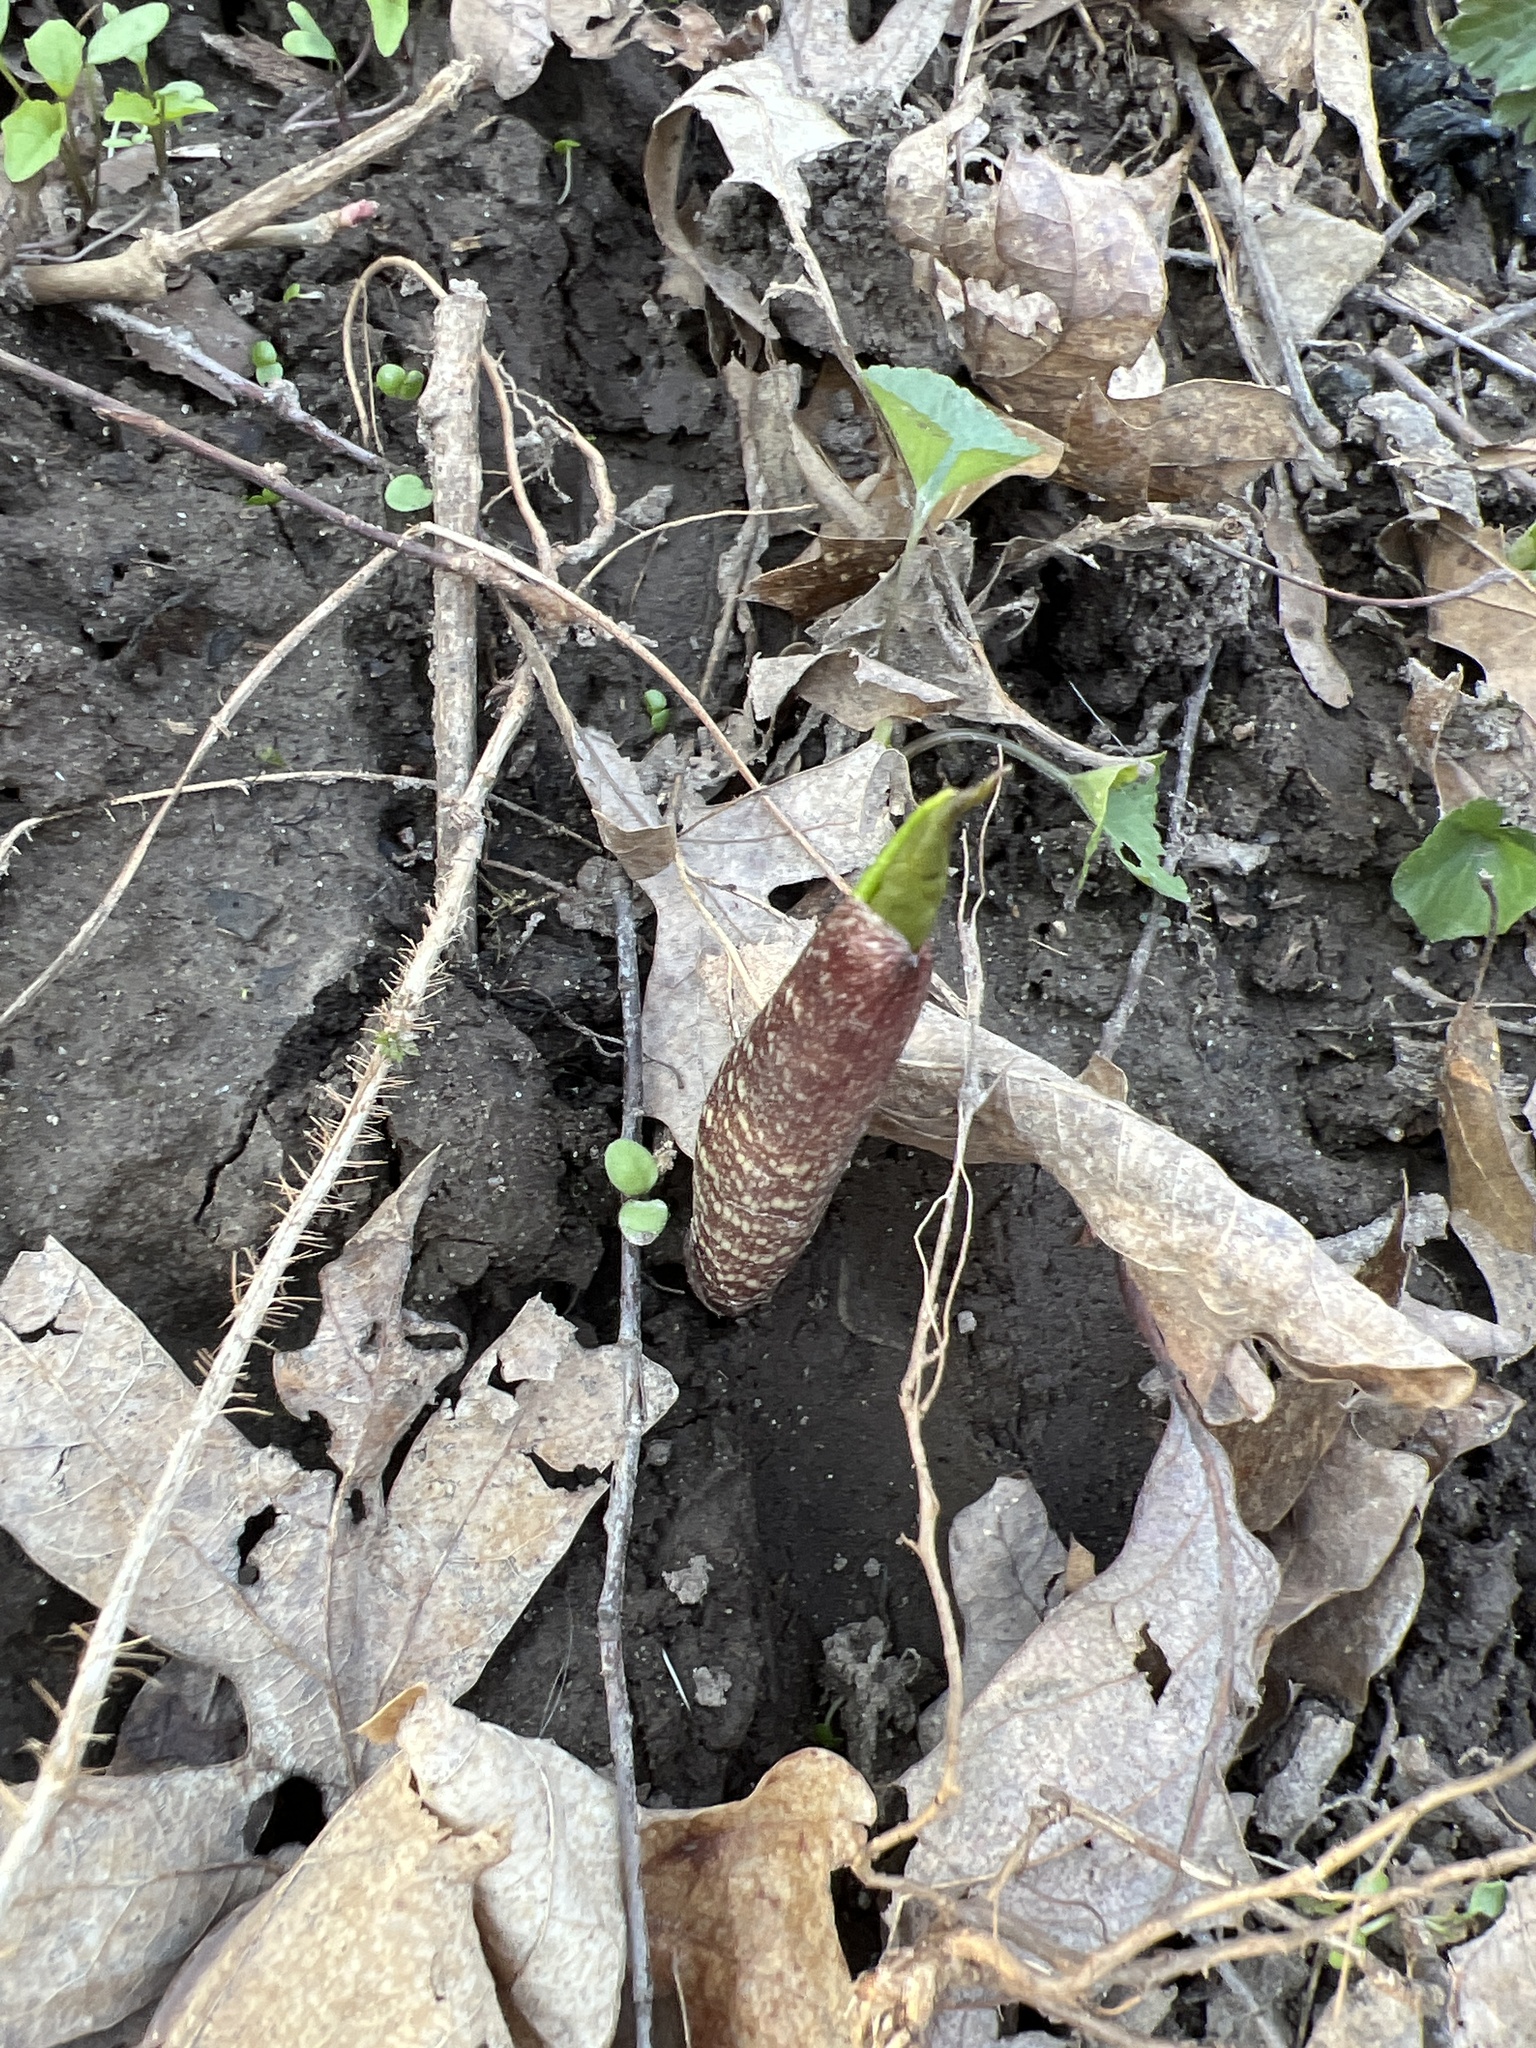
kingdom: Plantae
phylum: Tracheophyta
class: Liliopsida
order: Alismatales
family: Araceae
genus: Arisaema
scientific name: Arisaema triphyllum
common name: Jack-in-the-pulpit
